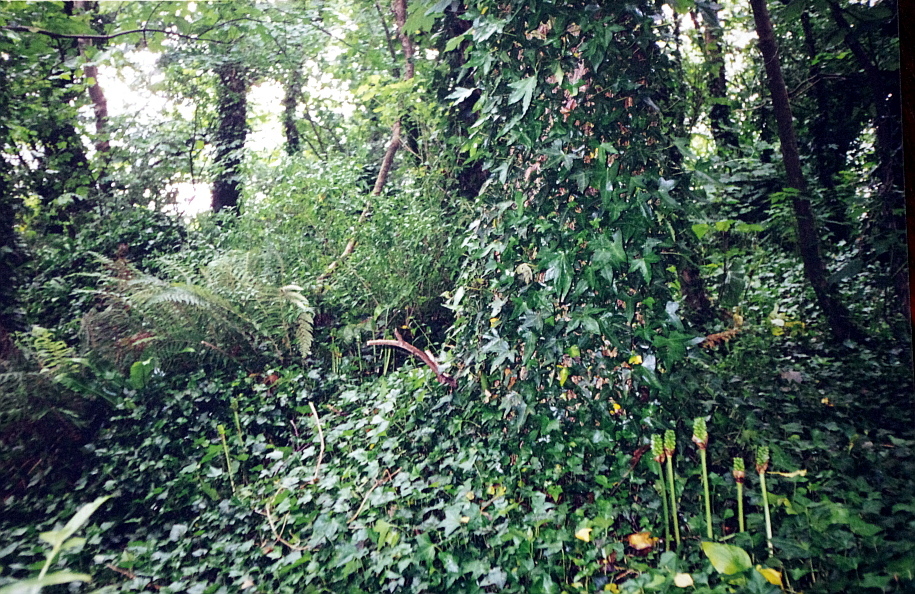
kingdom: Plantae
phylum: Tracheophyta
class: Magnoliopsida
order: Apiales
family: Araliaceae
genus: Hedera
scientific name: Hedera helix
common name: Ivy
